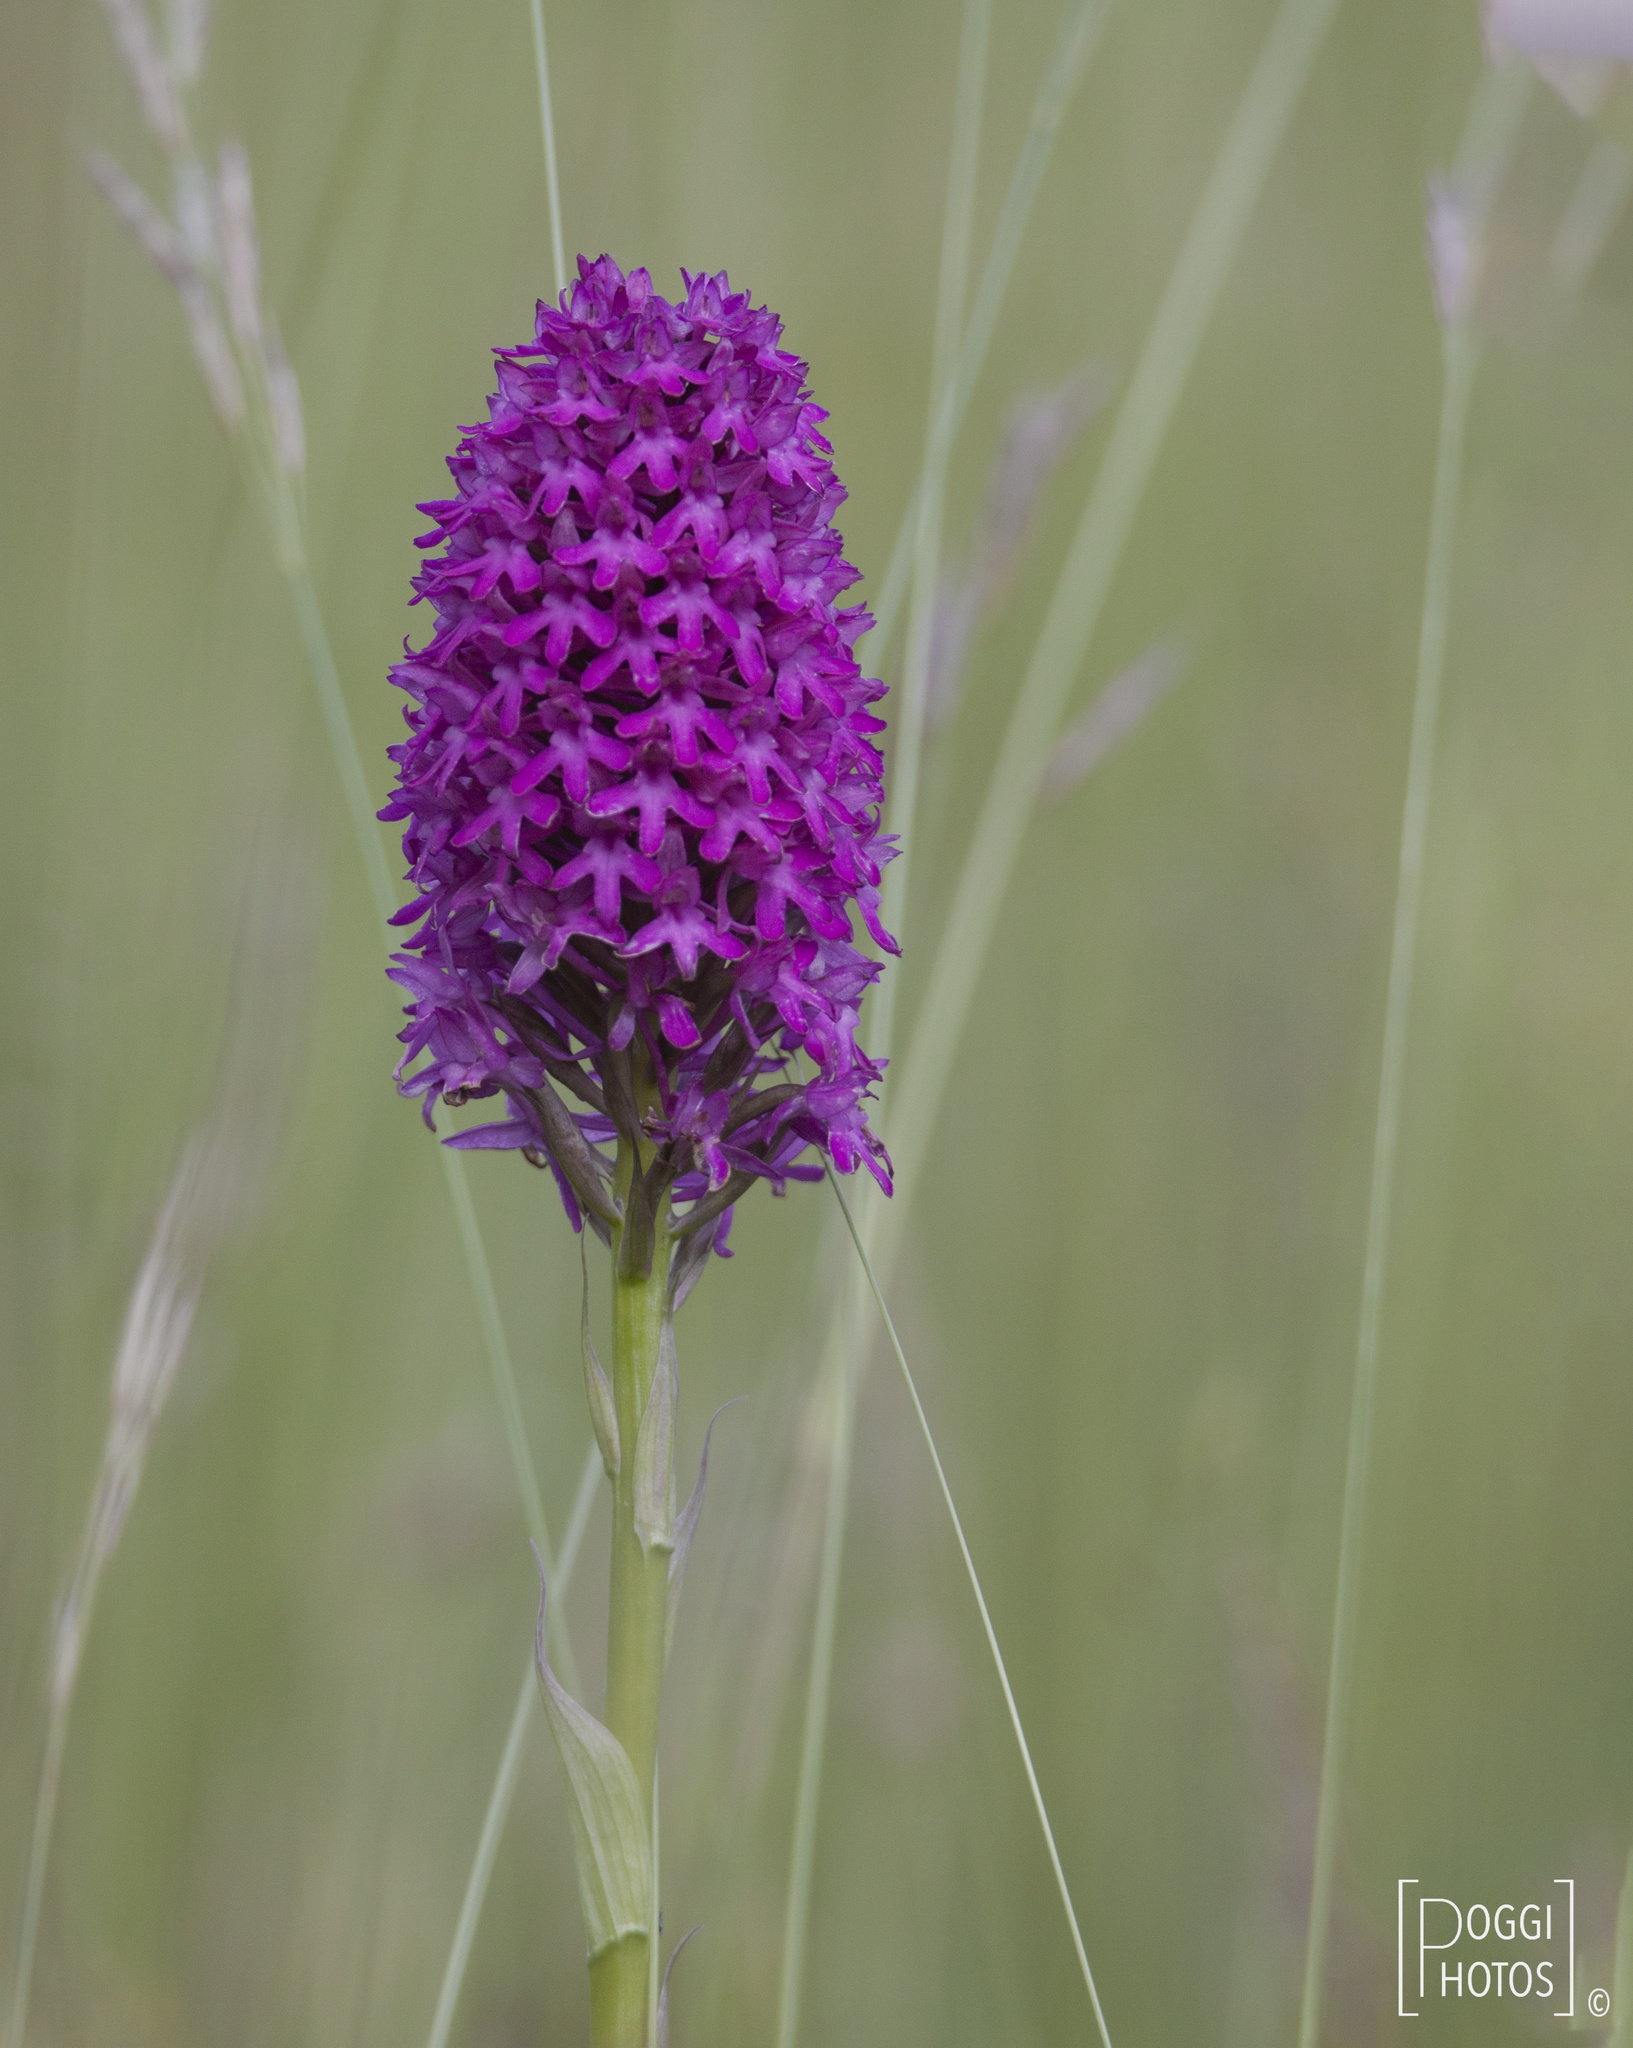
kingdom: Plantae
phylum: Tracheophyta
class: Liliopsida
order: Asparagales
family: Orchidaceae
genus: Anacamptis
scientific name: Anacamptis pyramidalis
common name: Pyramidal orchid
